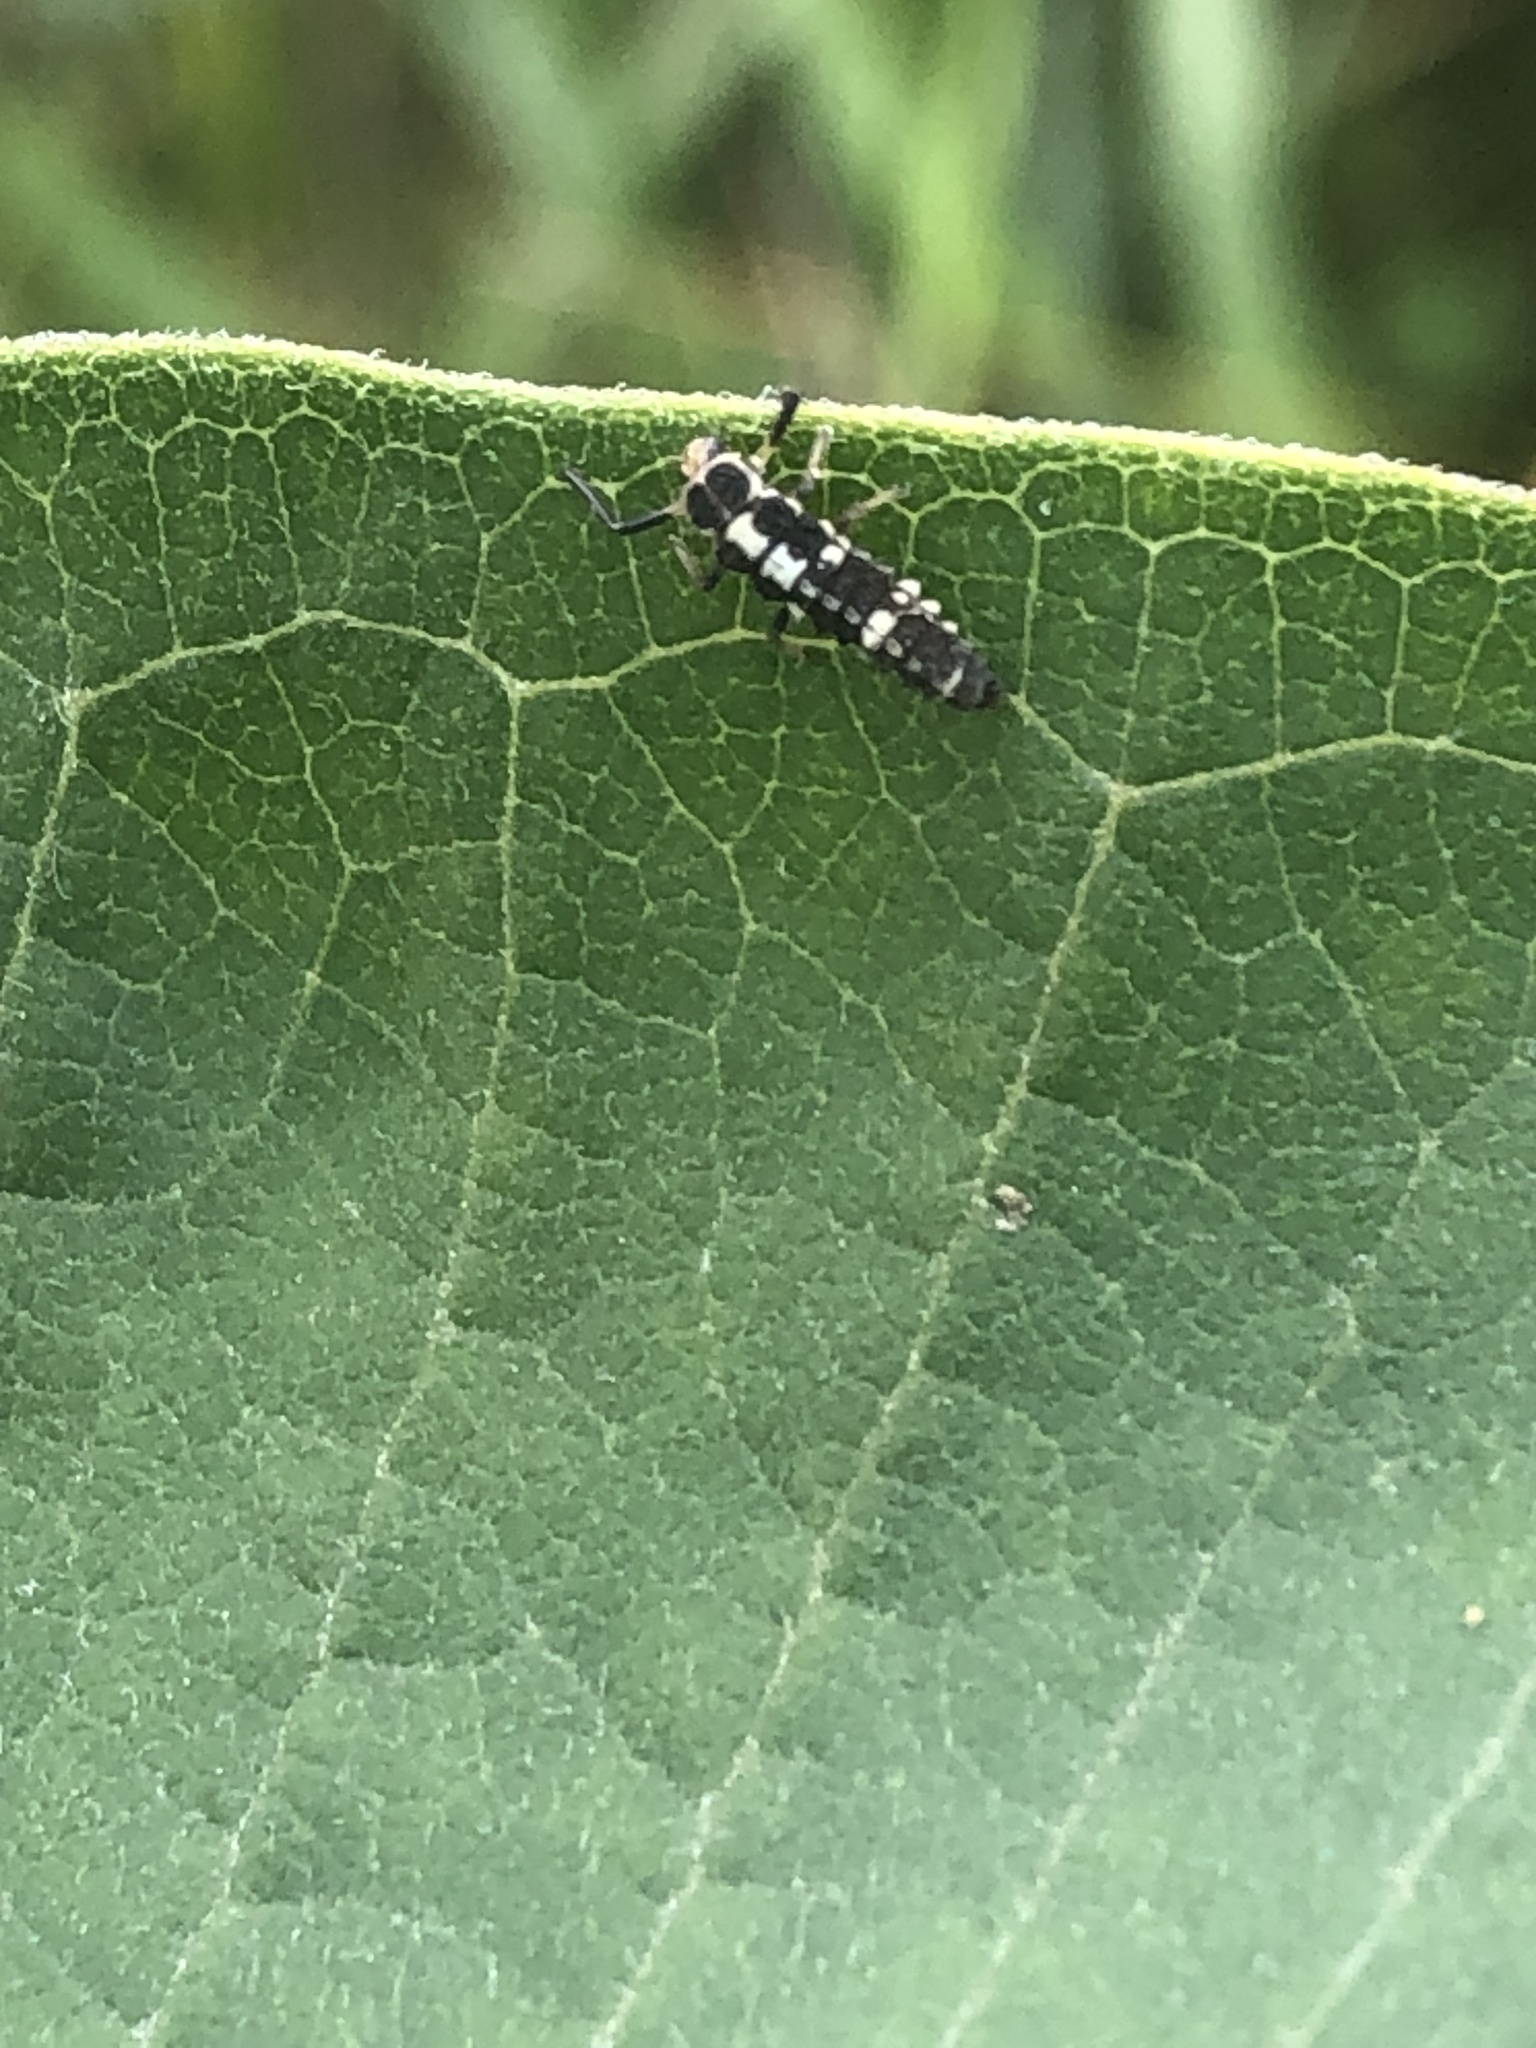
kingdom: Animalia
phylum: Arthropoda
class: Insecta
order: Coleoptera
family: Coccinellidae
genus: Propylaea
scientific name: Propylaea quatuordecimpunctata
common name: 14-spotted ladybird beetle
